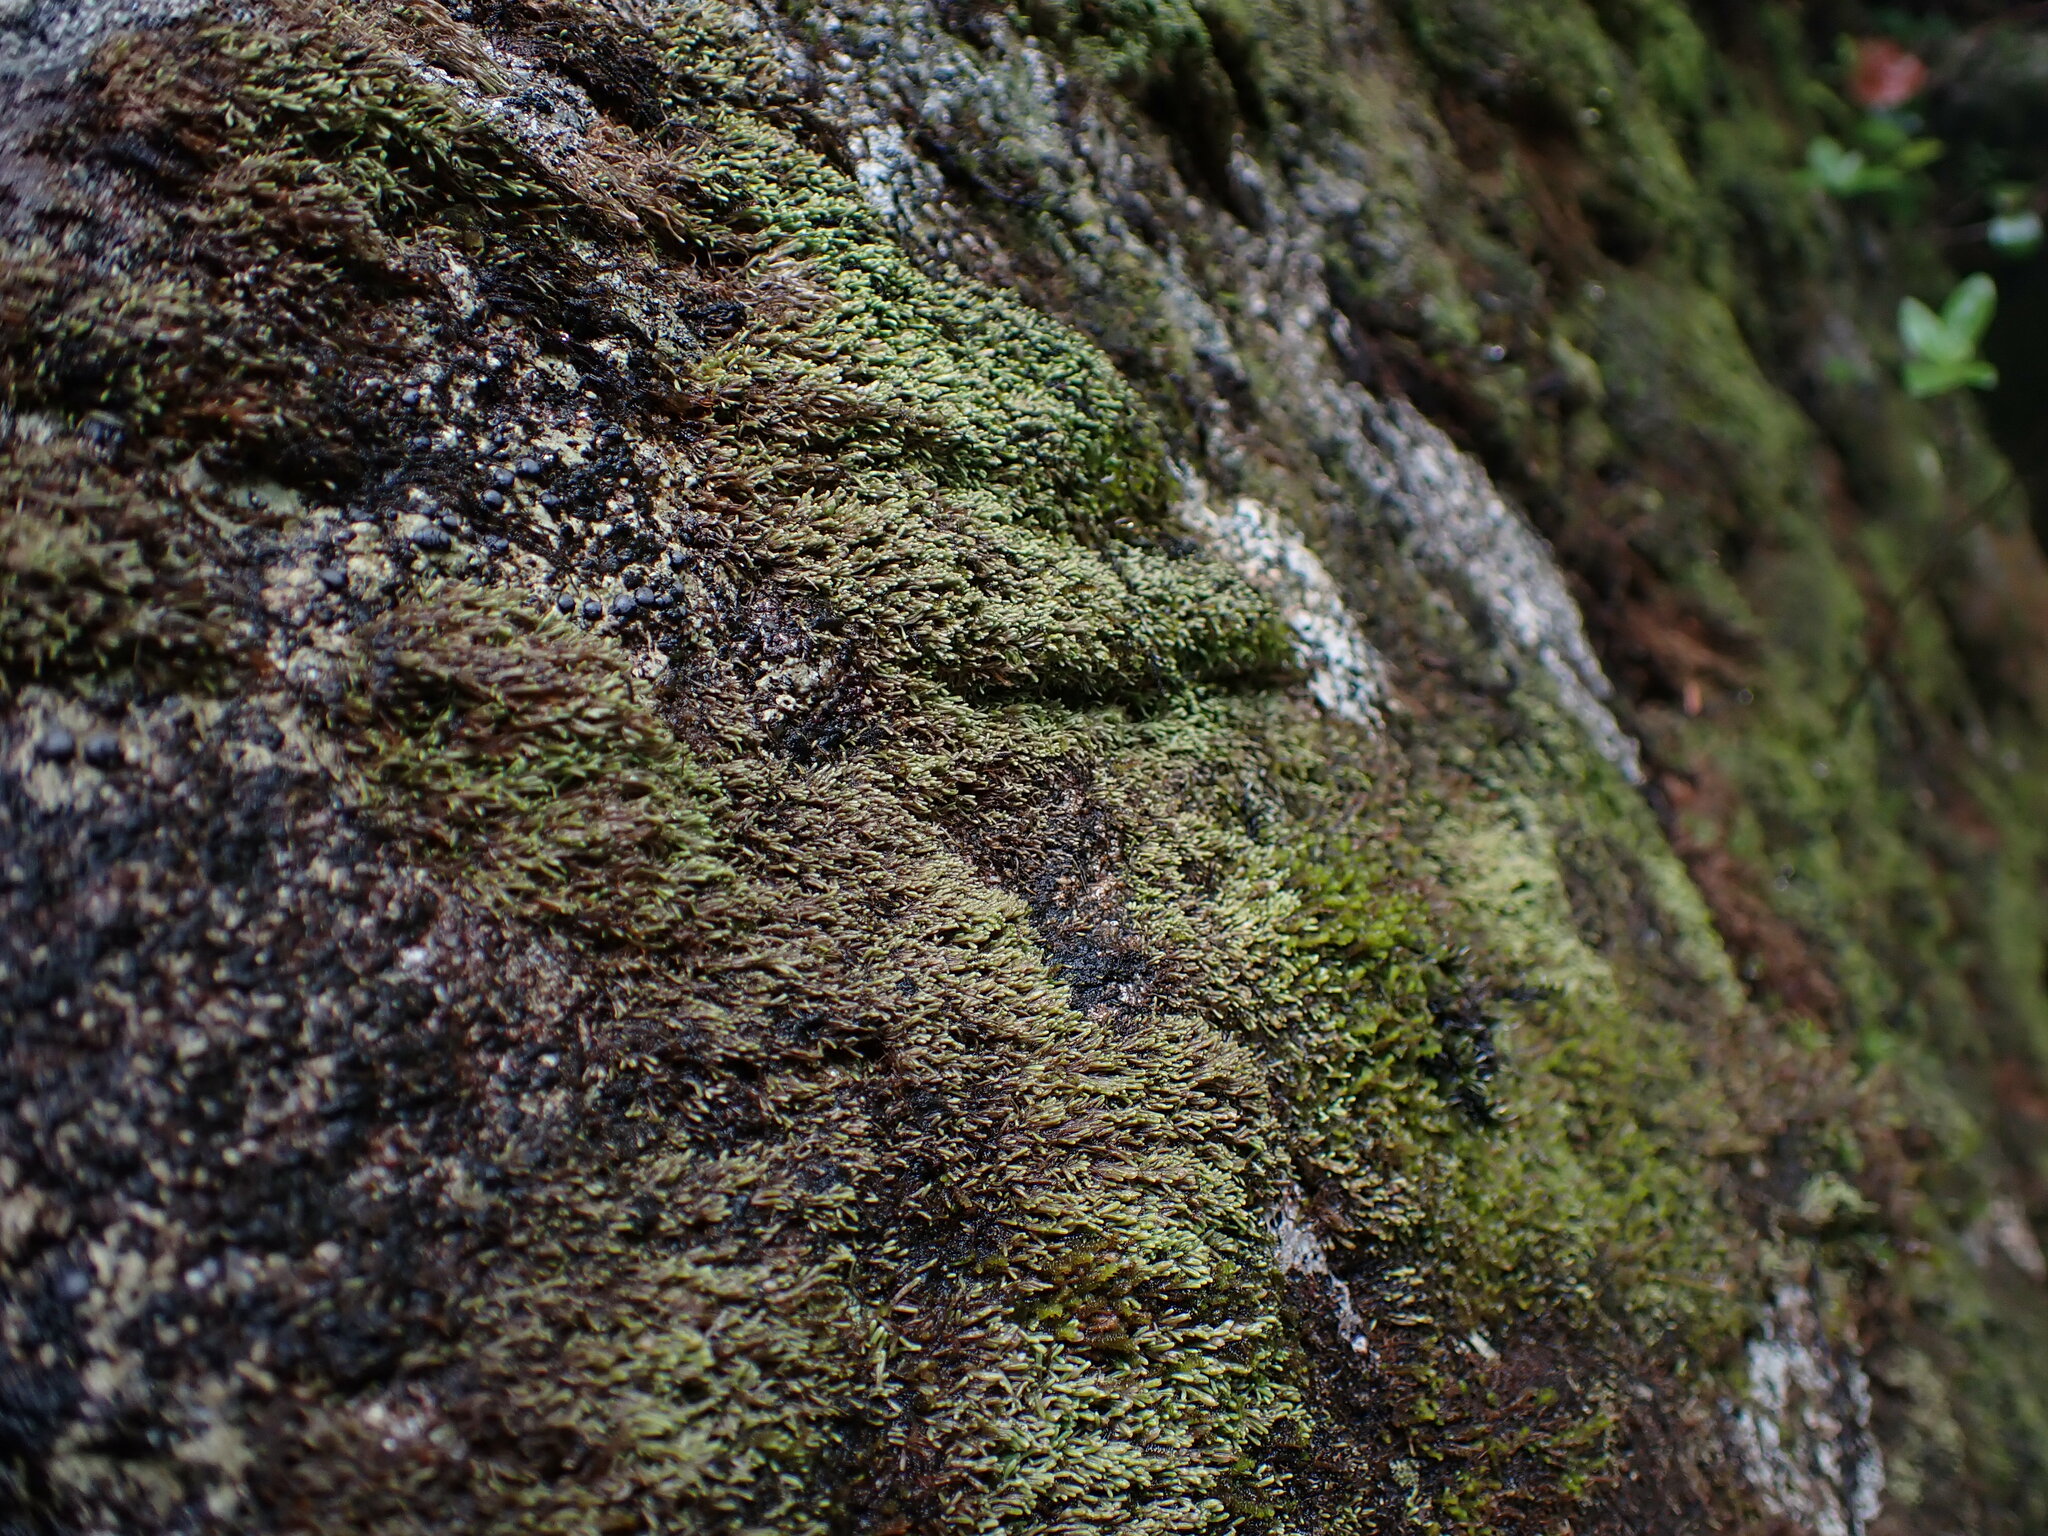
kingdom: Plantae
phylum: Marchantiophyta
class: Jungermanniopsida
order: Jungermanniales
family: Gymnomitriaceae
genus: Gymnomitrion
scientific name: Gymnomitrion obtusum
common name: White frostwort
